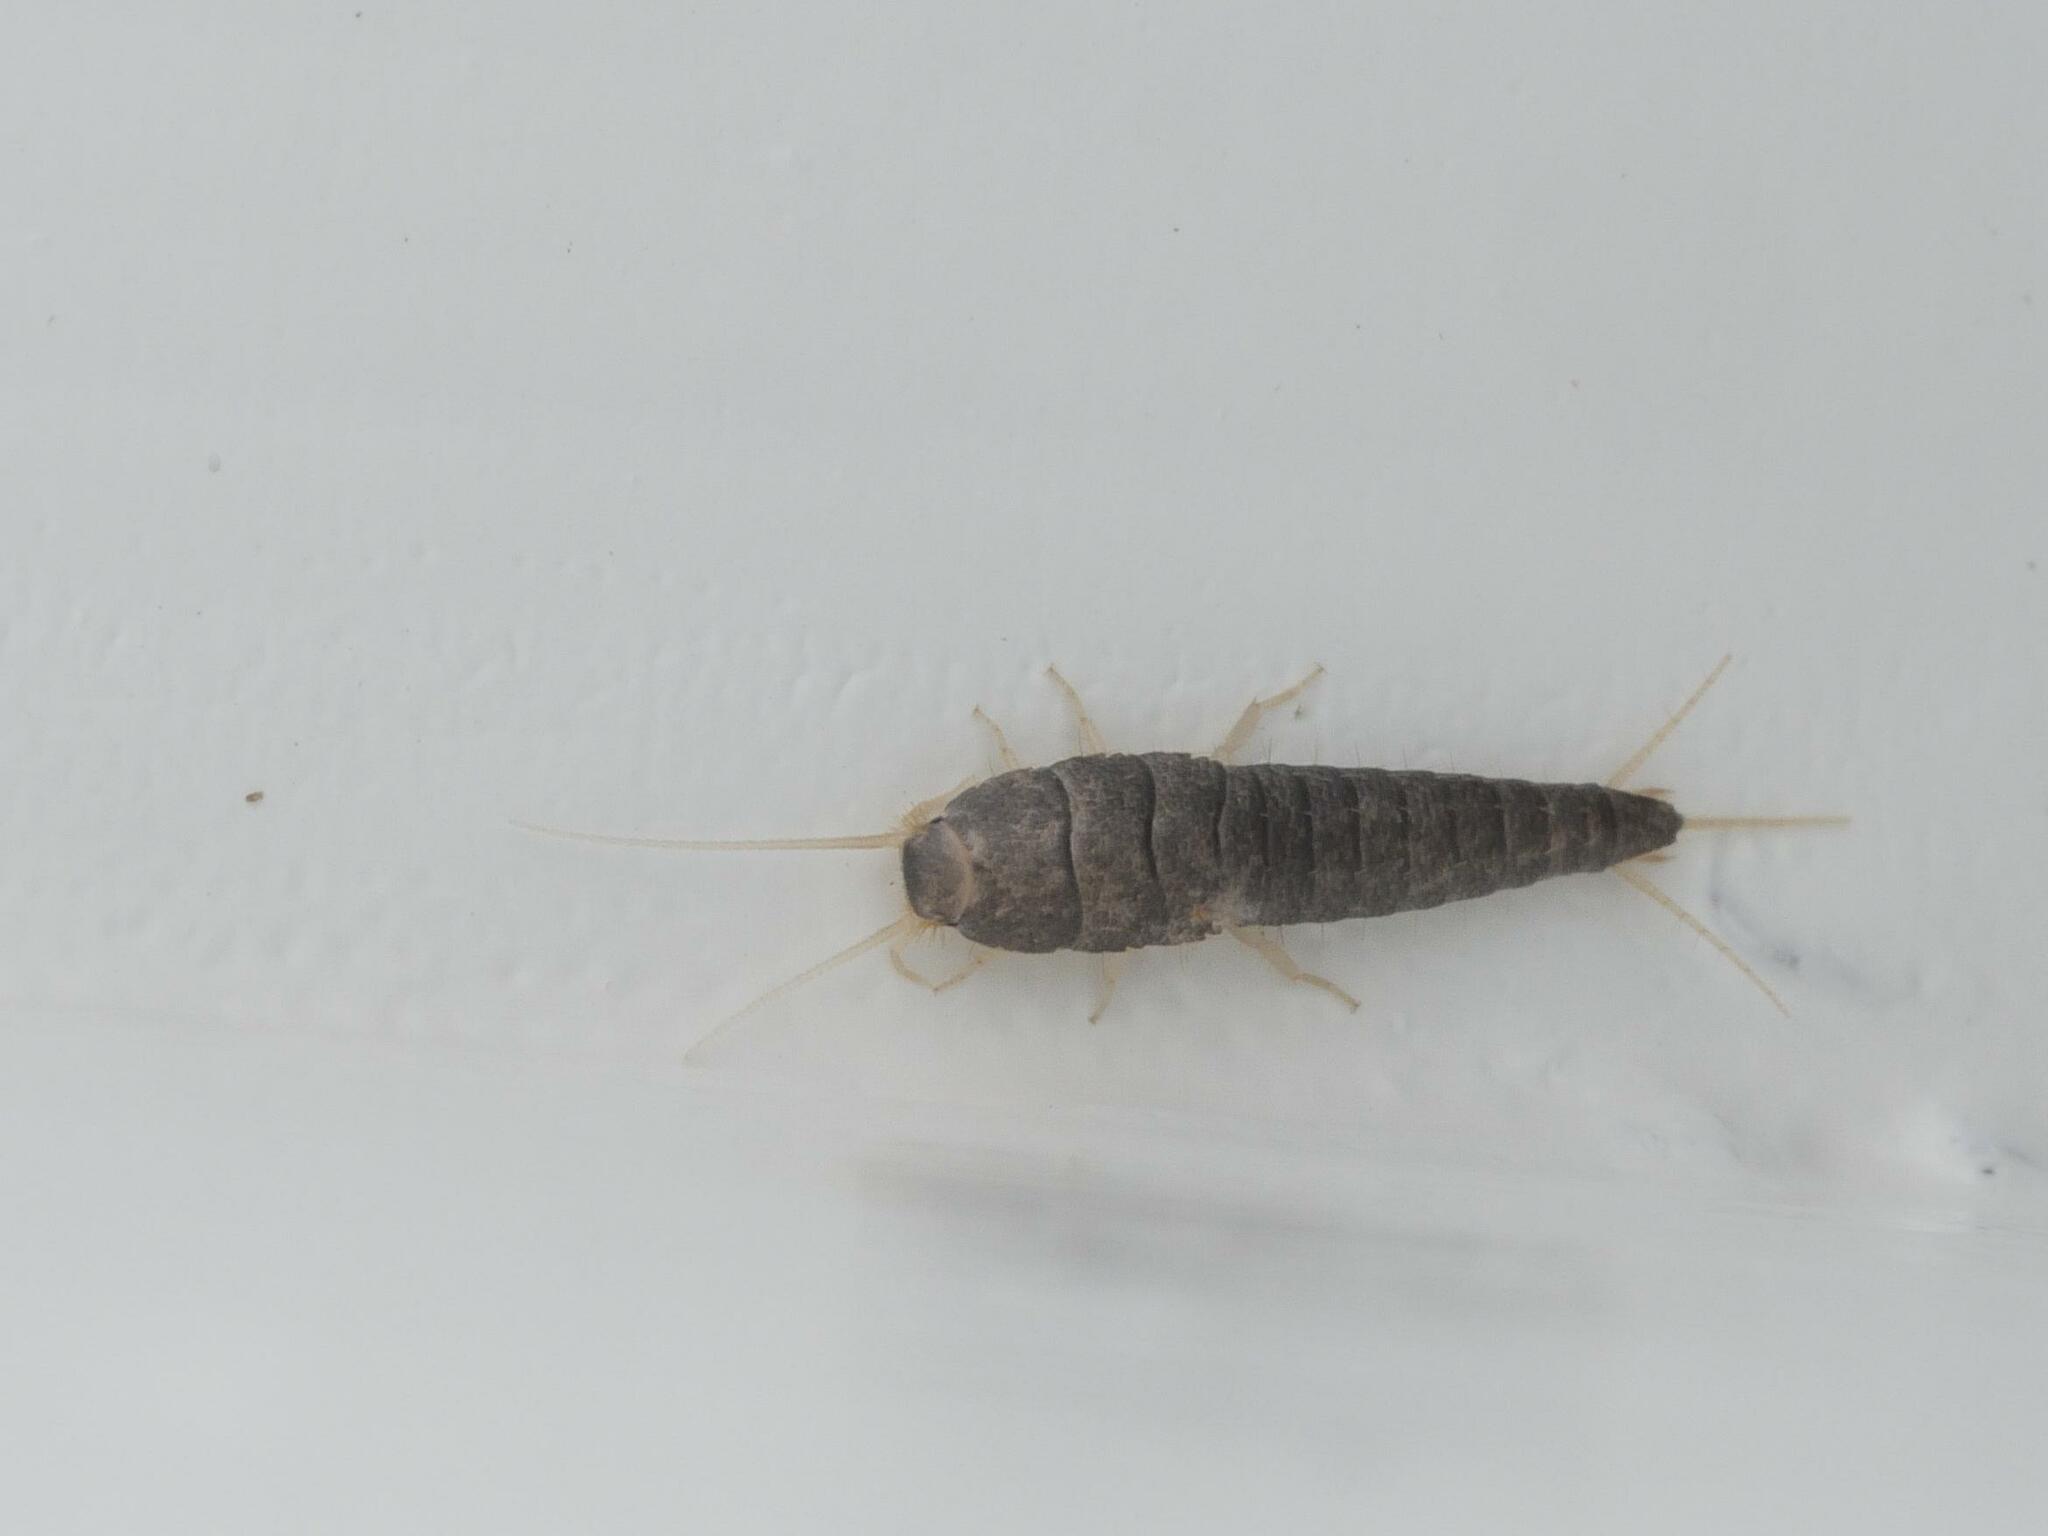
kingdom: Animalia
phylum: Arthropoda
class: Insecta
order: Zygentoma
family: Lepismatidae
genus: Lepisma
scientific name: Lepisma saccharinum
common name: Silverfish
